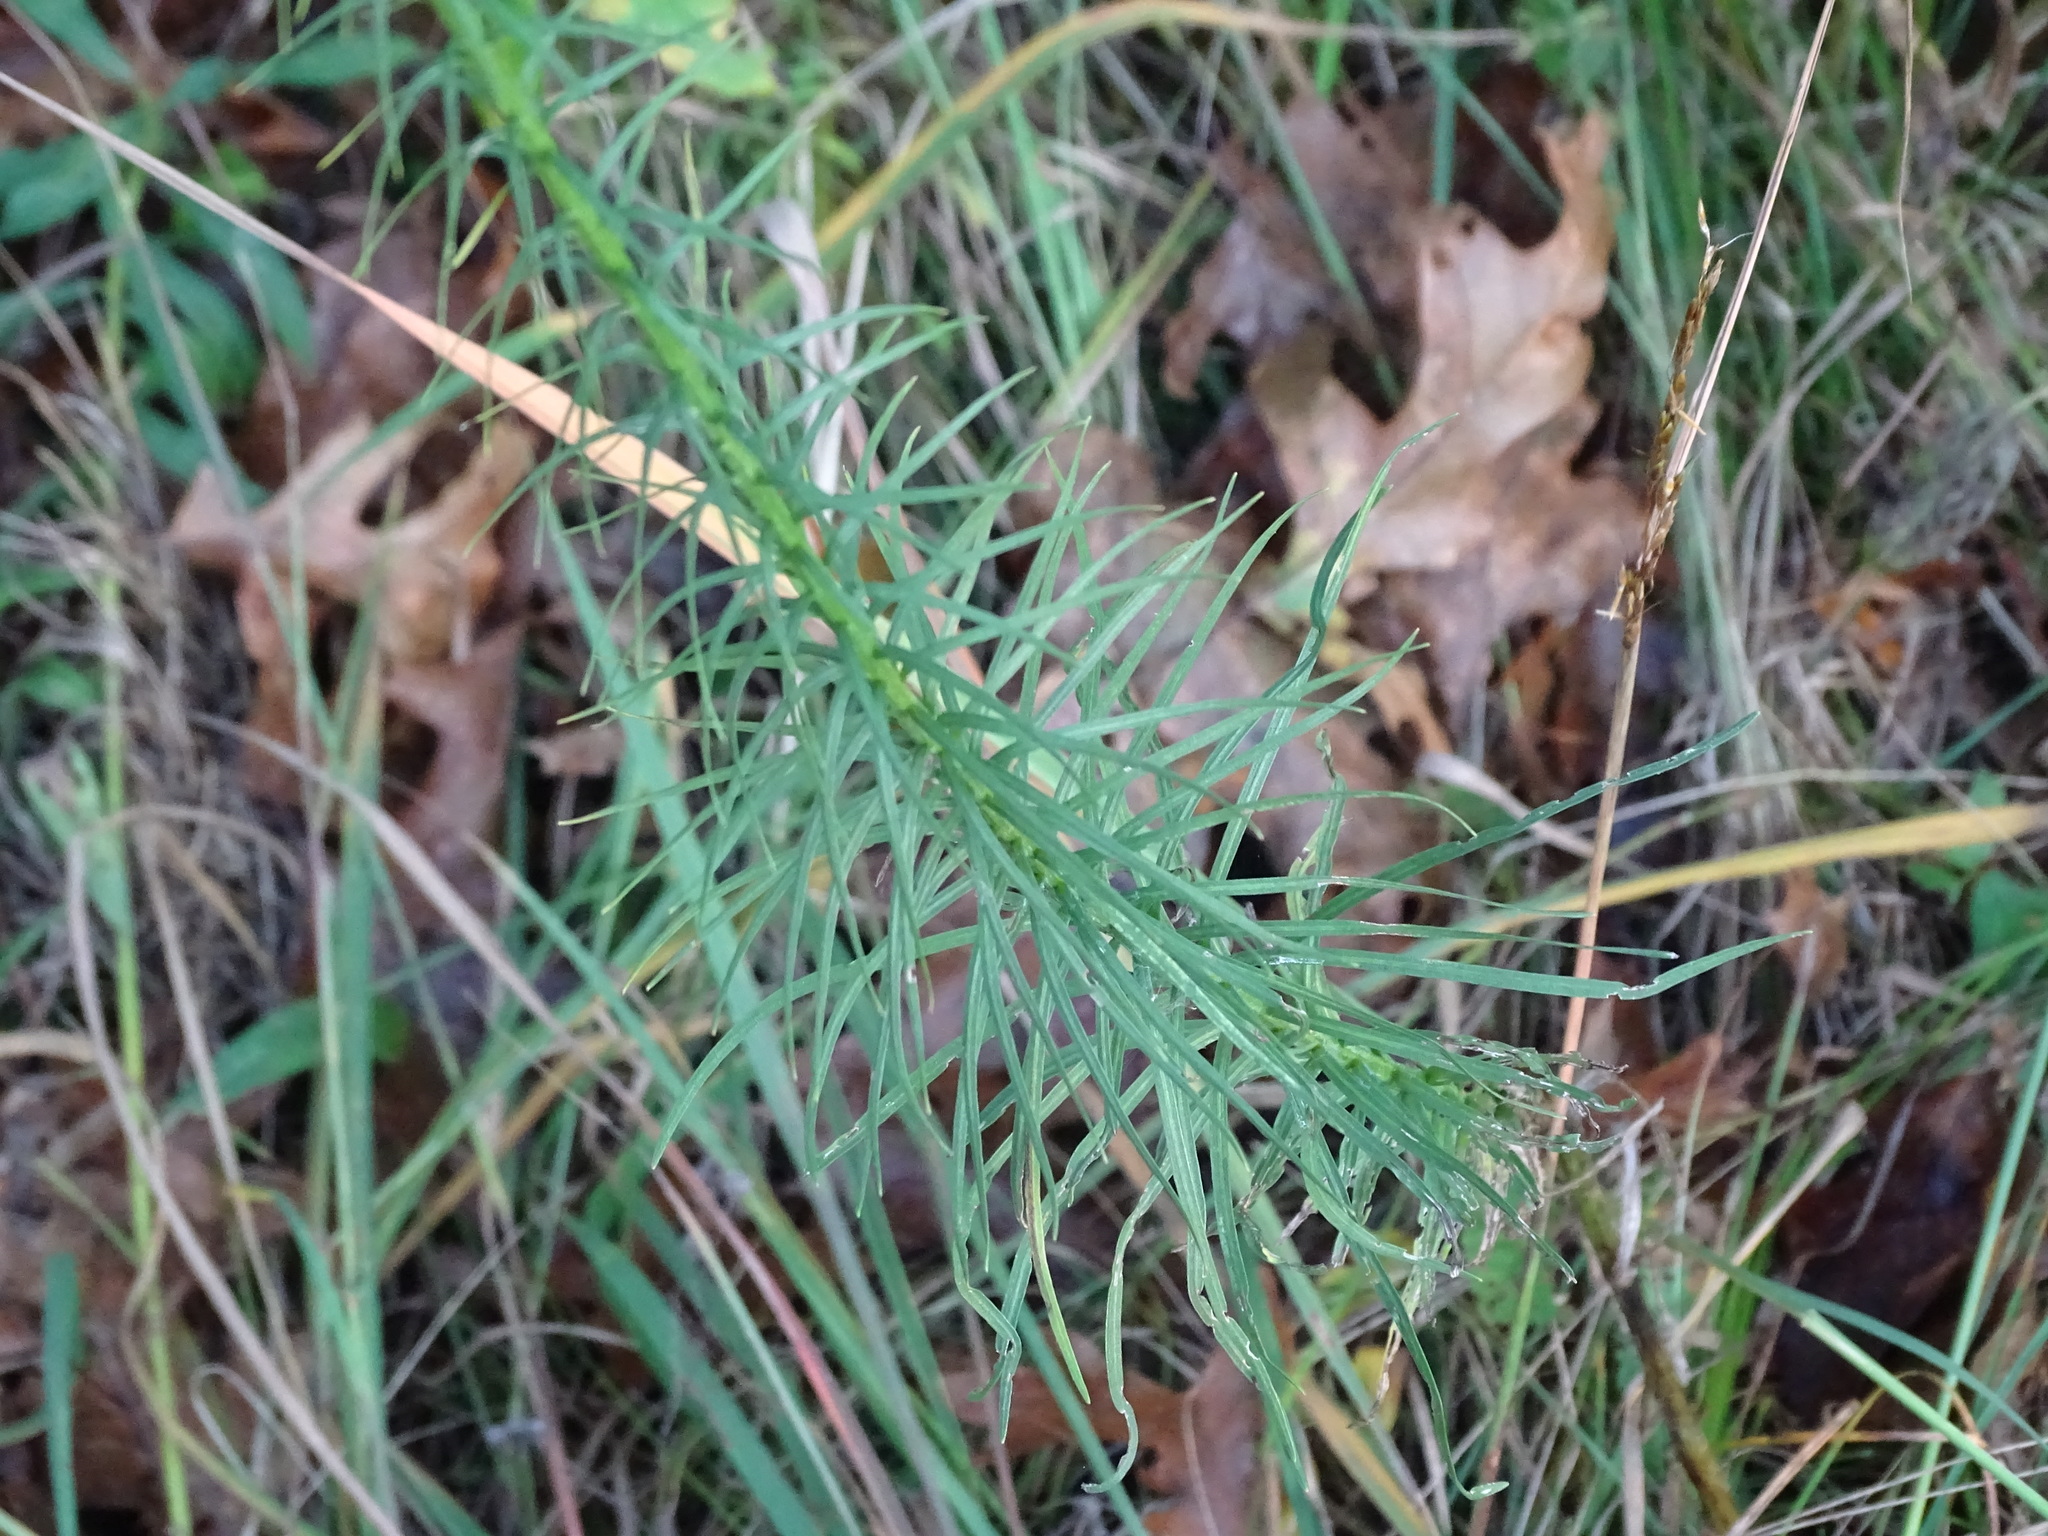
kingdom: Plantae
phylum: Tracheophyta
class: Magnoliopsida
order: Asterales
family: Asteraceae
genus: Liatris
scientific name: Liatris spicata
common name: Florist gayfeather
